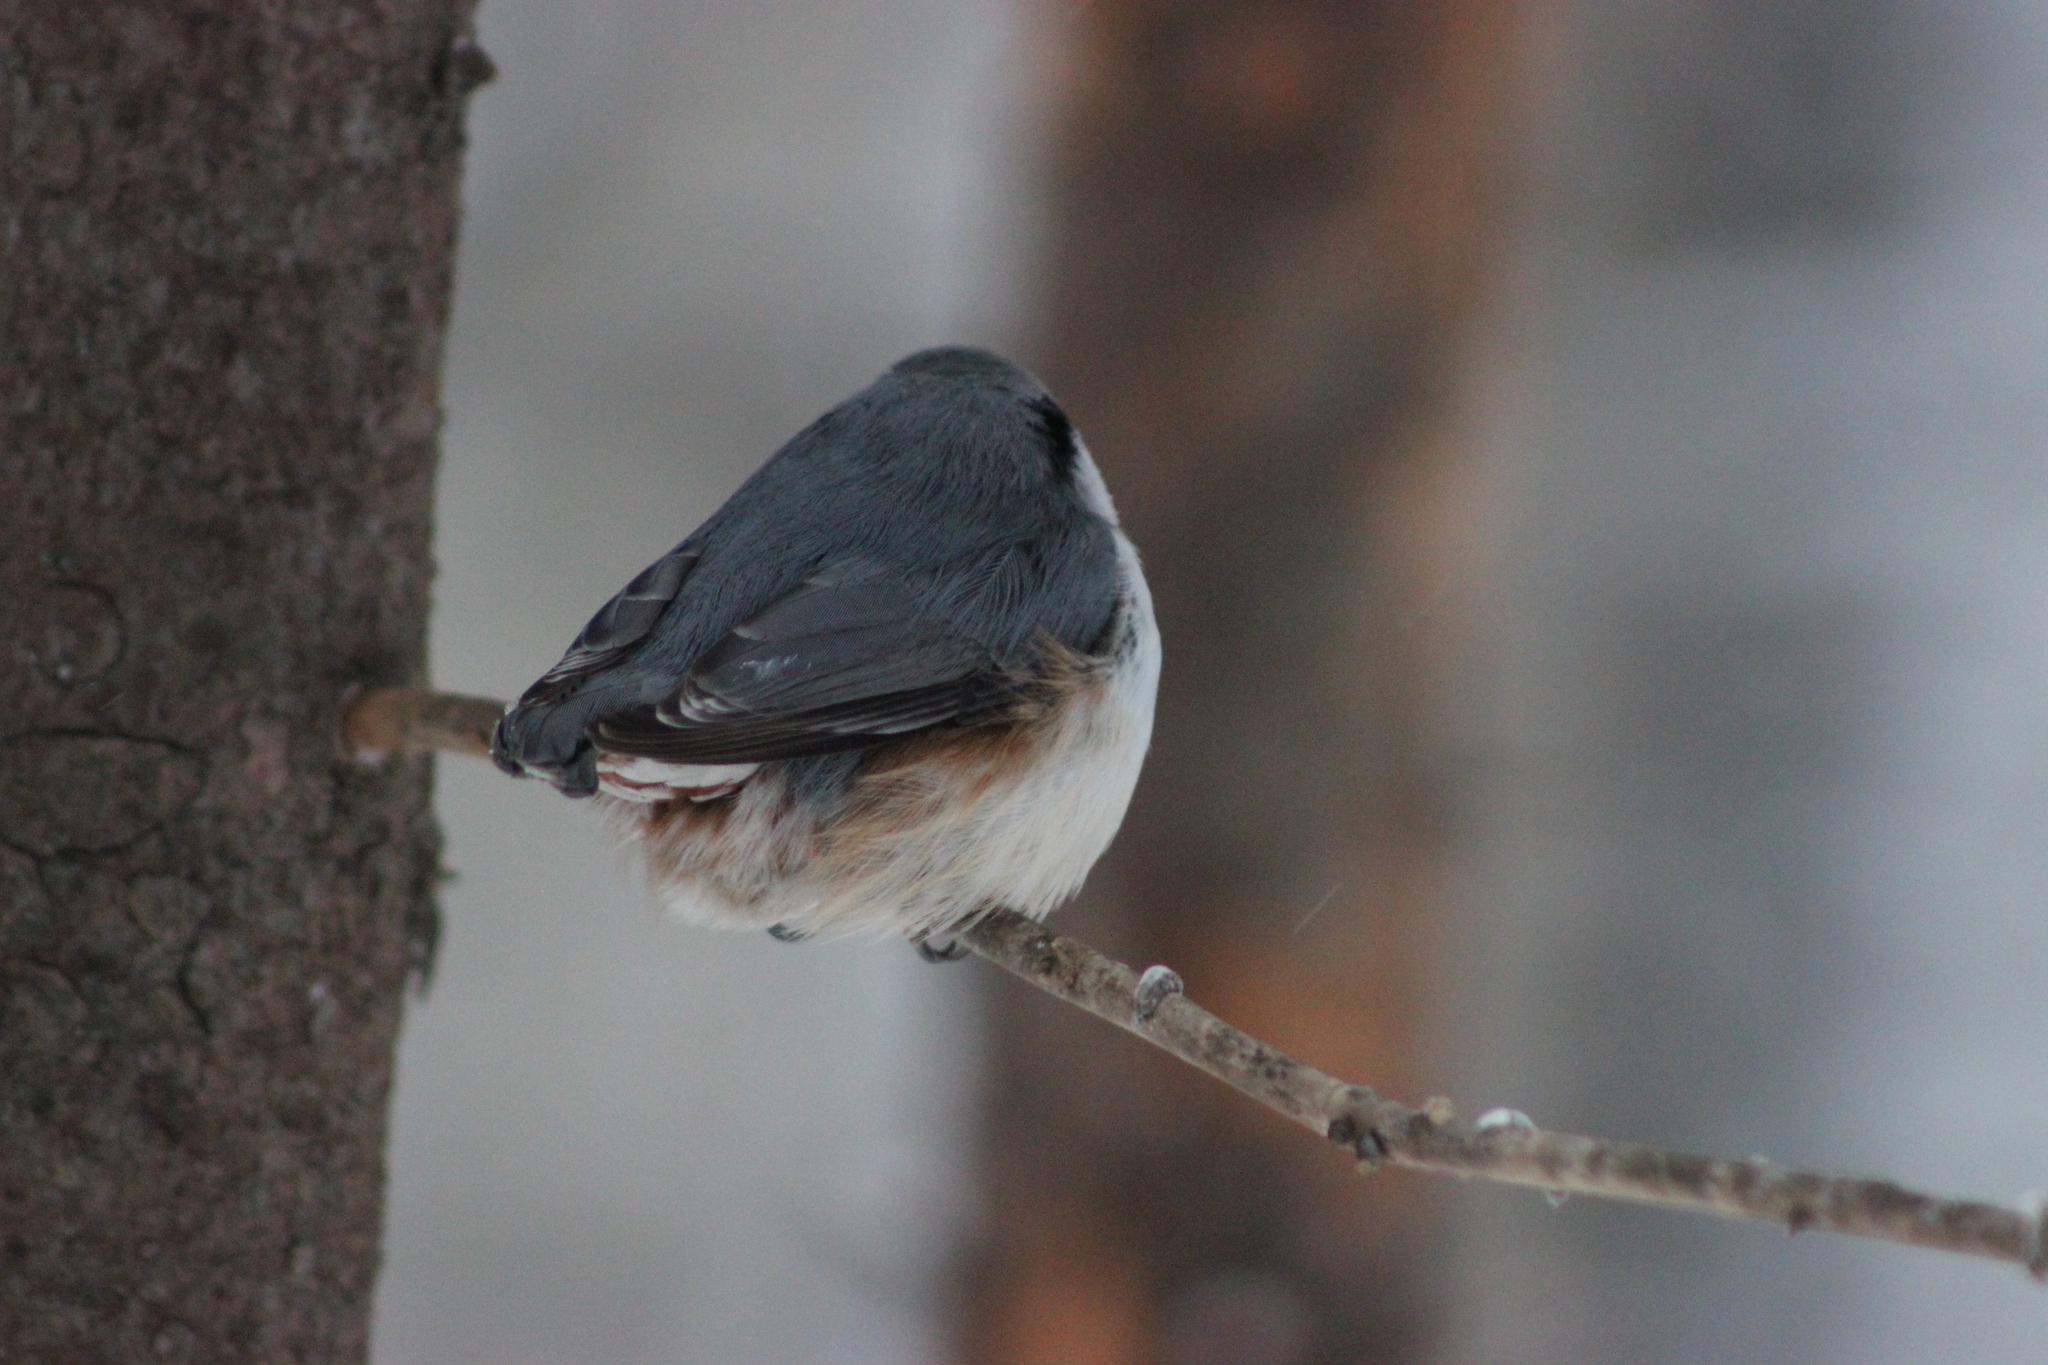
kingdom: Animalia
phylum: Chordata
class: Aves
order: Passeriformes
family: Sittidae
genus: Sitta
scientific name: Sitta europaea
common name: Eurasian nuthatch
